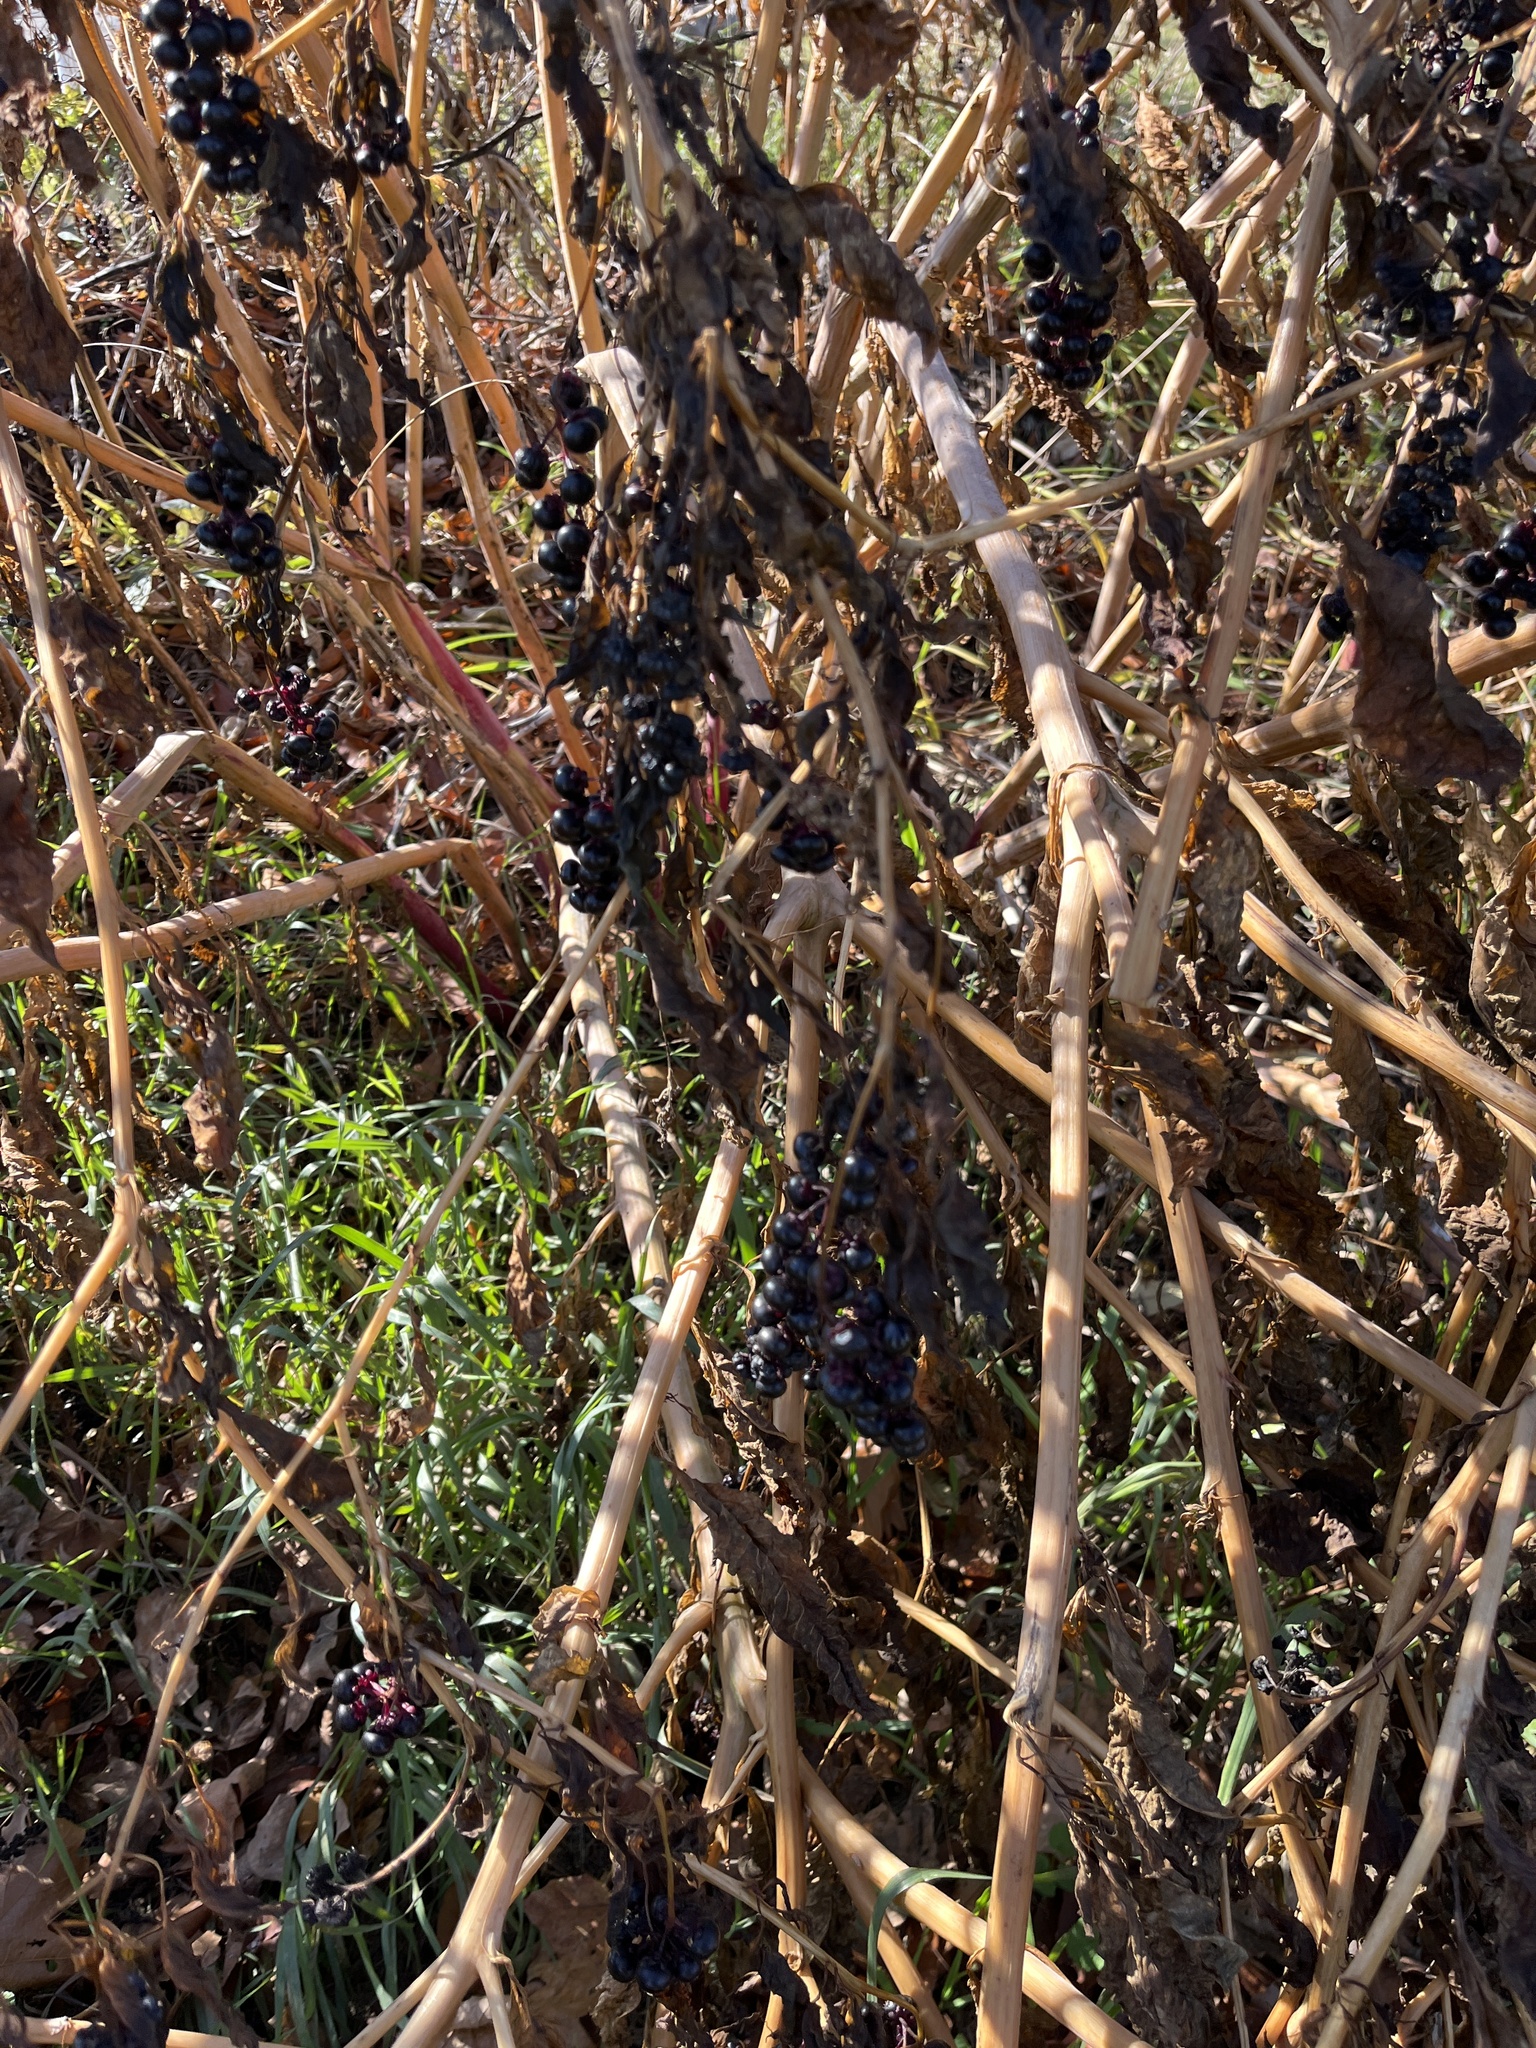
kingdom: Plantae
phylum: Tracheophyta
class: Magnoliopsida
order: Caryophyllales
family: Phytolaccaceae
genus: Phytolacca
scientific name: Phytolacca americana
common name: American pokeweed
